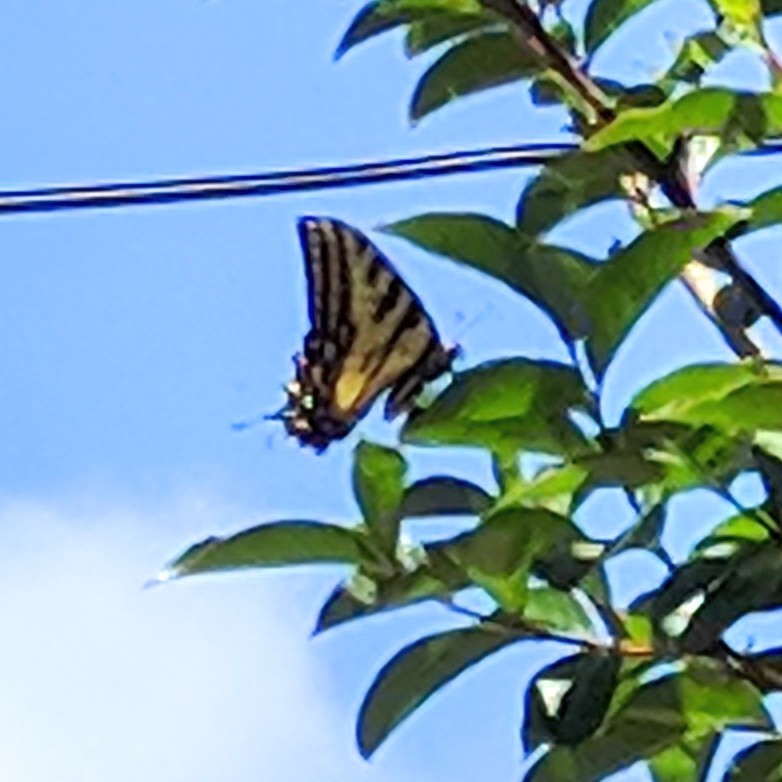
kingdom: Animalia
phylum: Arthropoda
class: Insecta
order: Lepidoptera
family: Papilionidae
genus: Papilio
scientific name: Papilio rutulus
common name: Western tiger swallowtail
